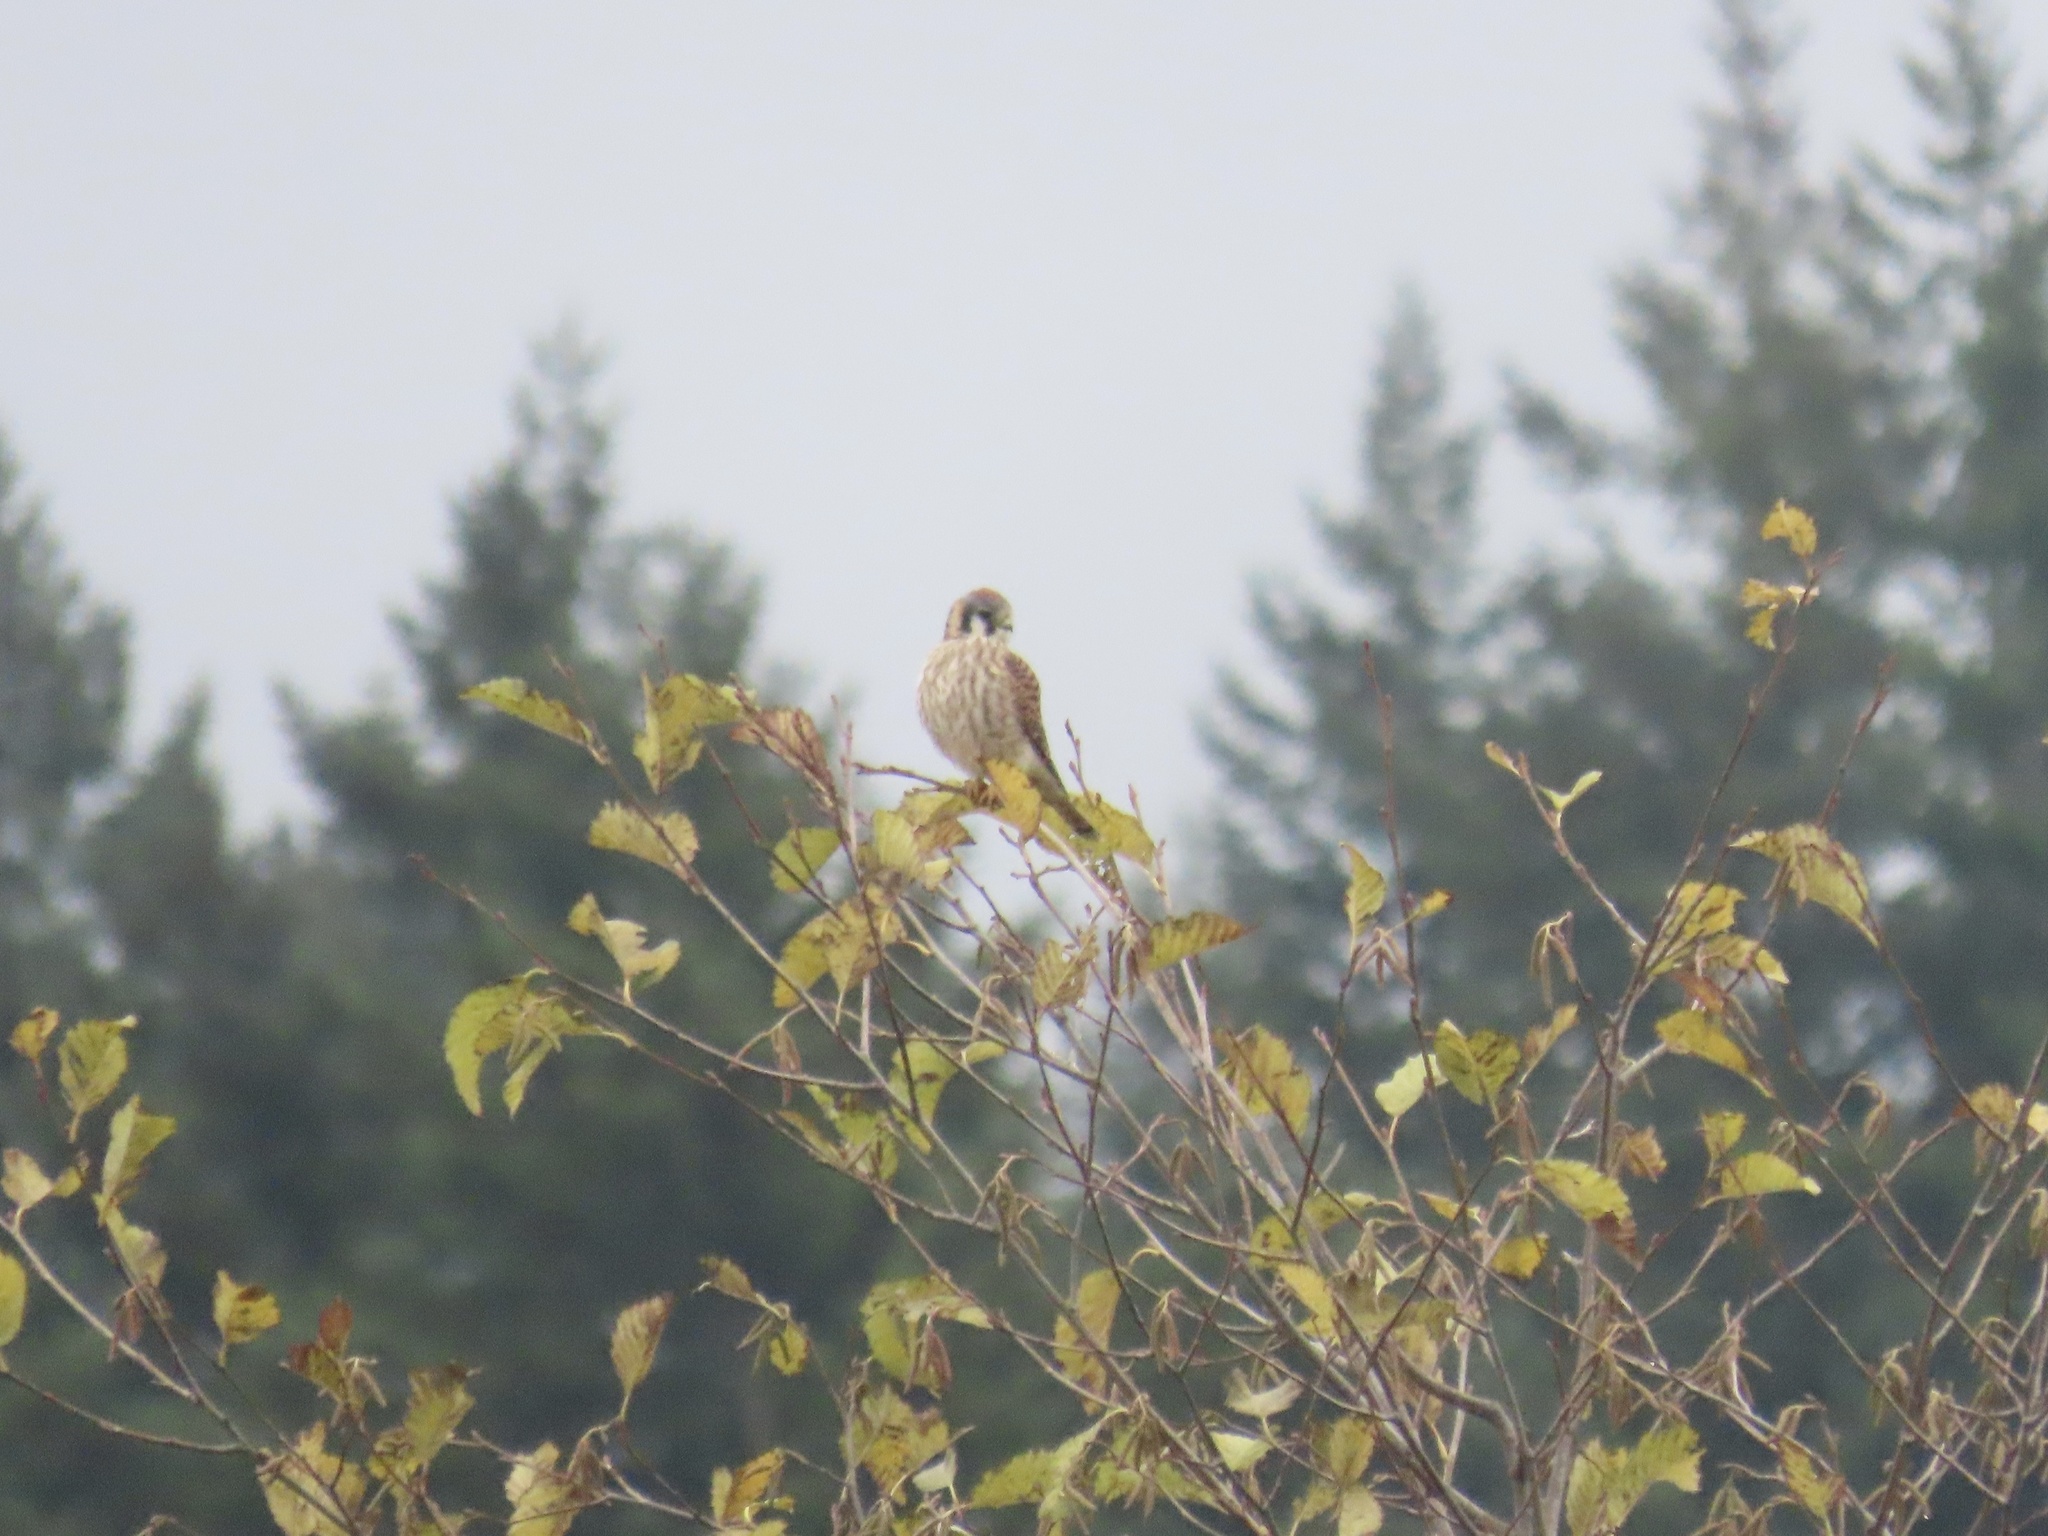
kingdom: Animalia
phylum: Chordata
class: Aves
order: Falconiformes
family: Falconidae
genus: Falco
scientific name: Falco sparverius
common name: American kestrel
